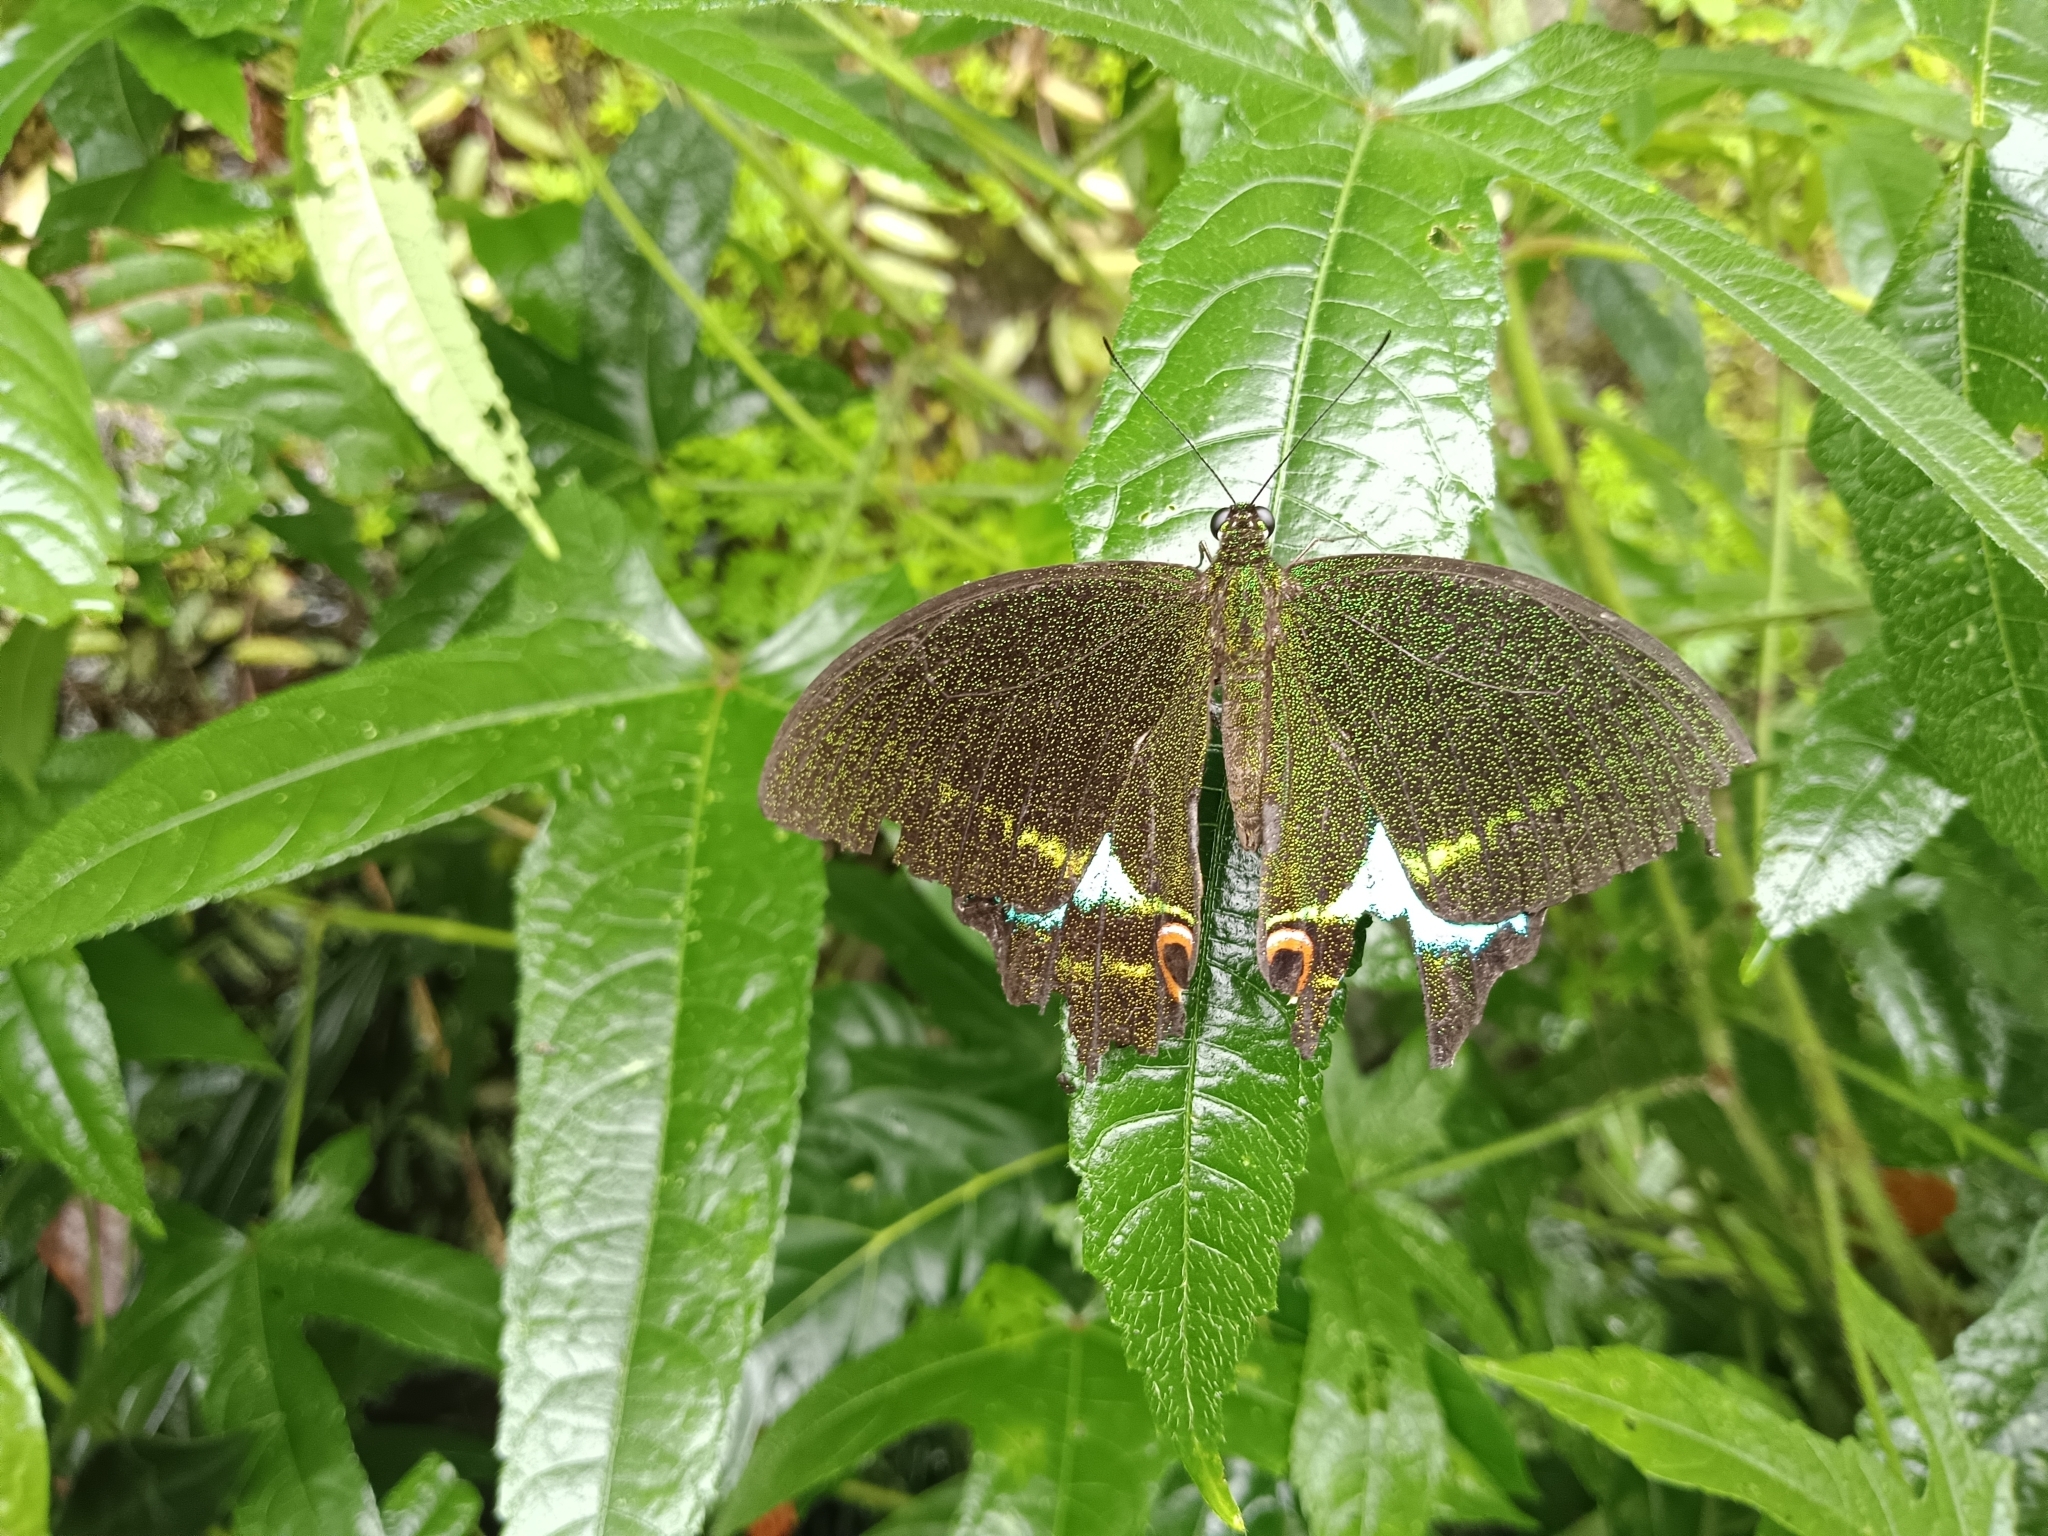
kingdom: Animalia
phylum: Arthropoda
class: Insecta
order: Lepidoptera
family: Papilionidae
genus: Papilio
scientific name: Papilio paris
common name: Paris peacock
